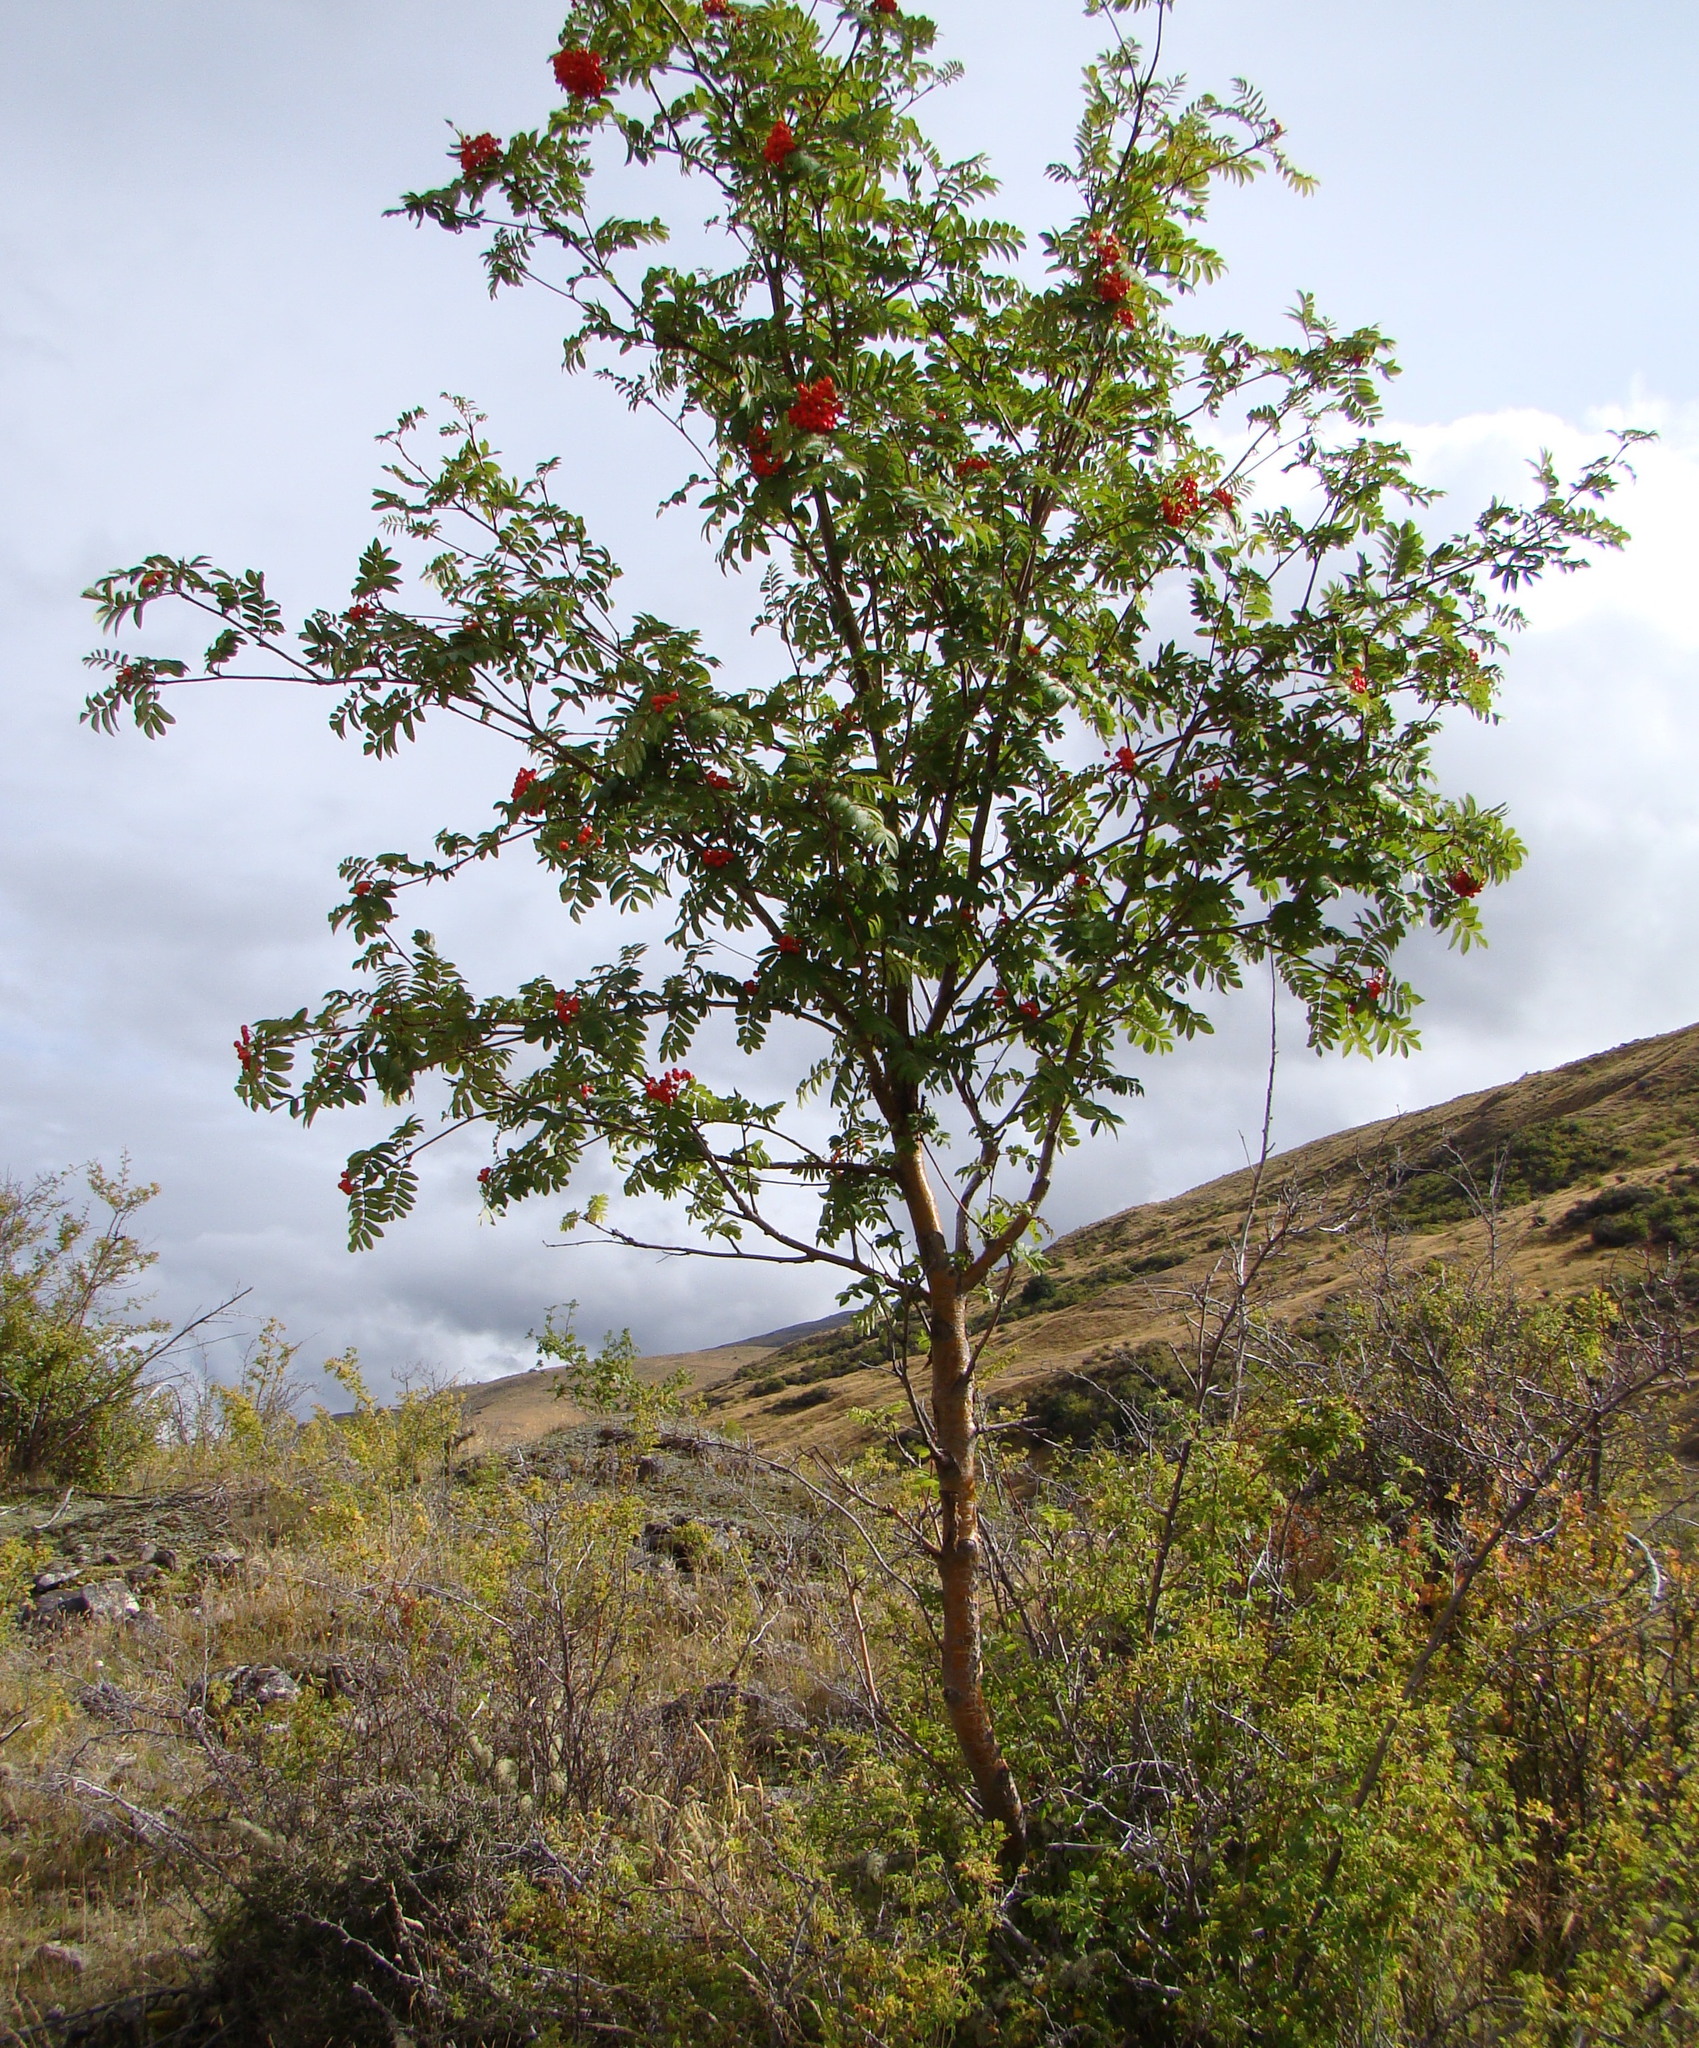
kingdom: Plantae
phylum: Tracheophyta
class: Magnoliopsida
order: Rosales
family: Rosaceae
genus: Sorbus
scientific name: Sorbus aucuparia
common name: Rowan
